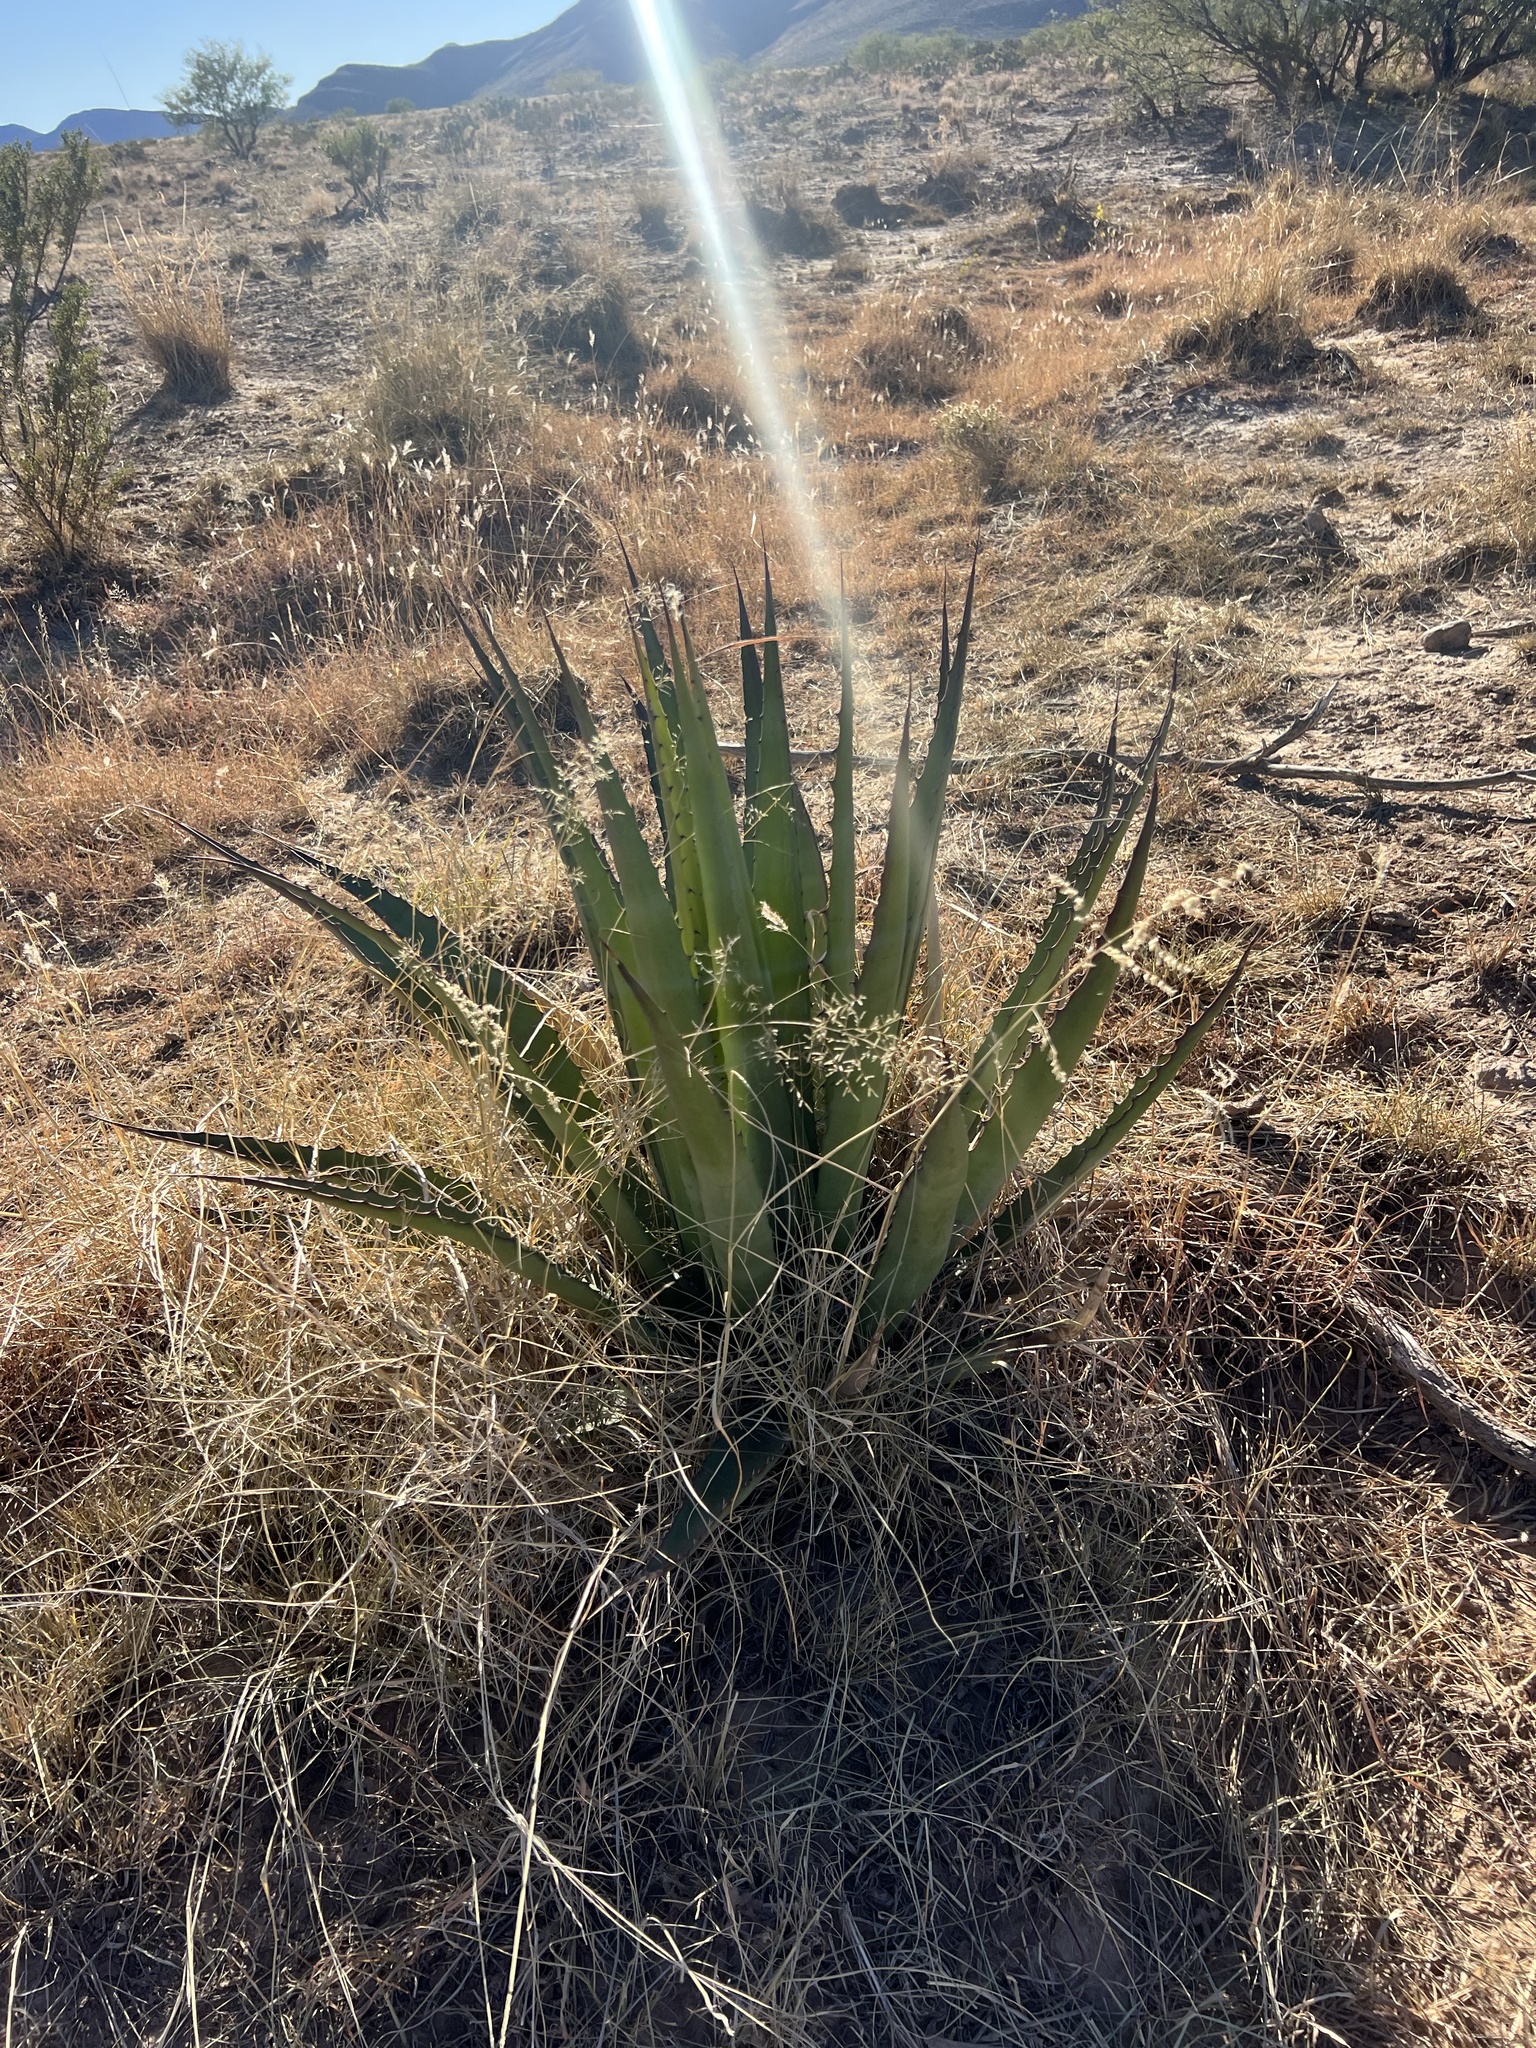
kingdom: Plantae
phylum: Tracheophyta
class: Liliopsida
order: Asparagales
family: Asparagaceae
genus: Agave
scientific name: Agave palmeri
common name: Palmer agave
